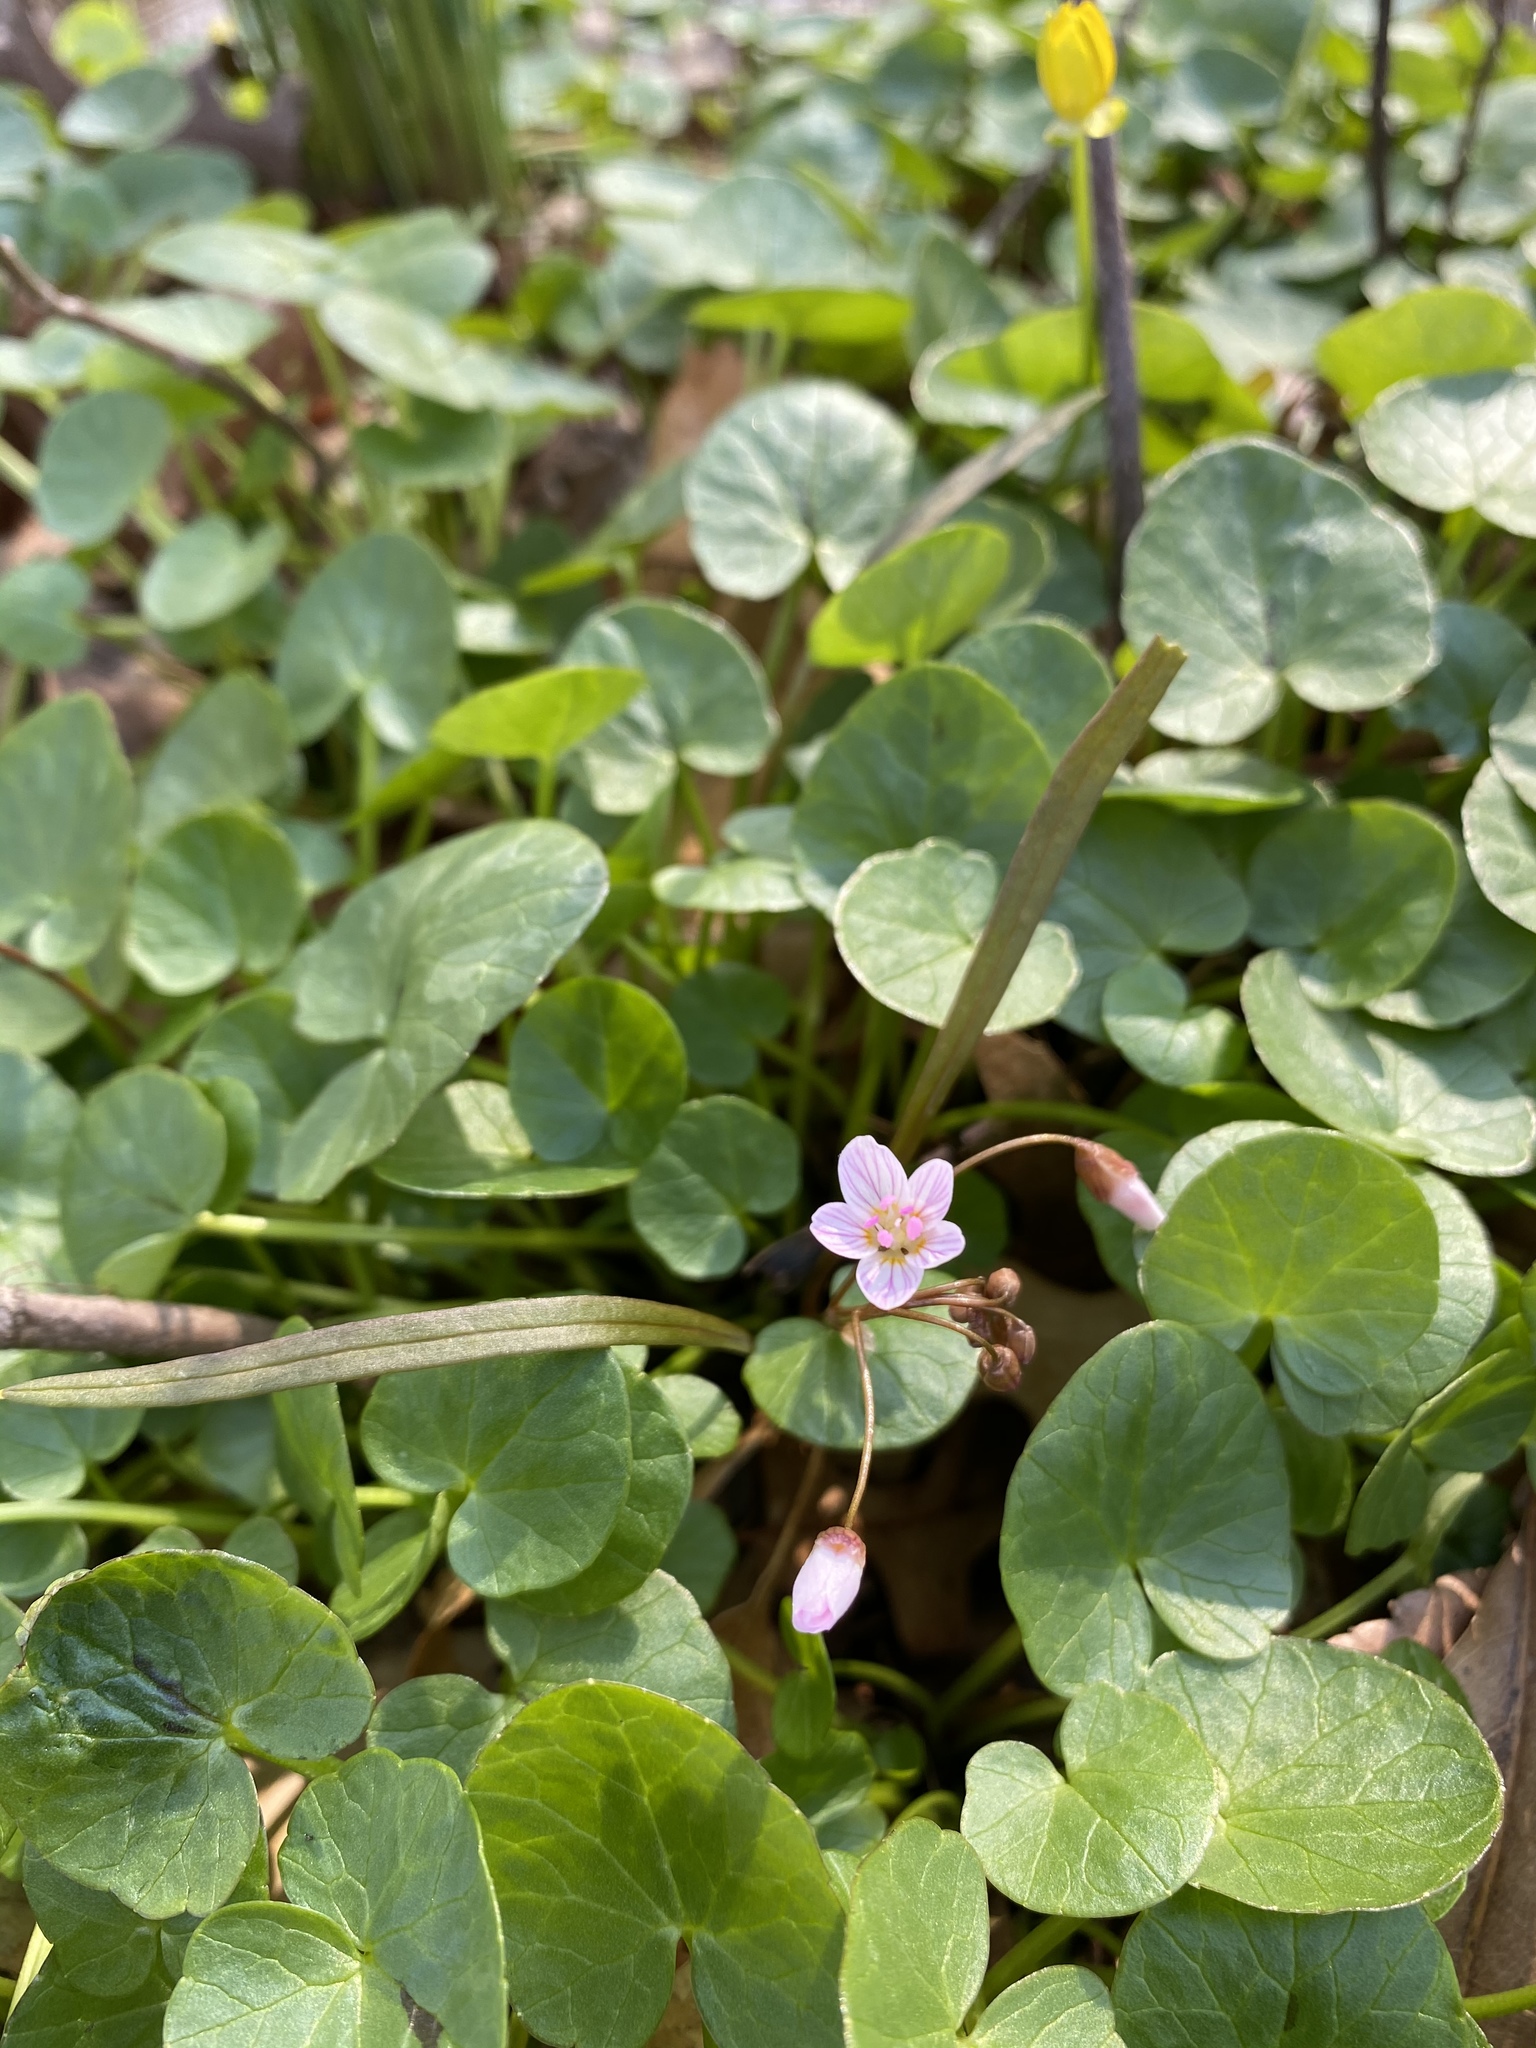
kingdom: Plantae
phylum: Tracheophyta
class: Magnoliopsida
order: Caryophyllales
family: Montiaceae
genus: Claytonia
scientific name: Claytonia virginica
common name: Virginia springbeauty
